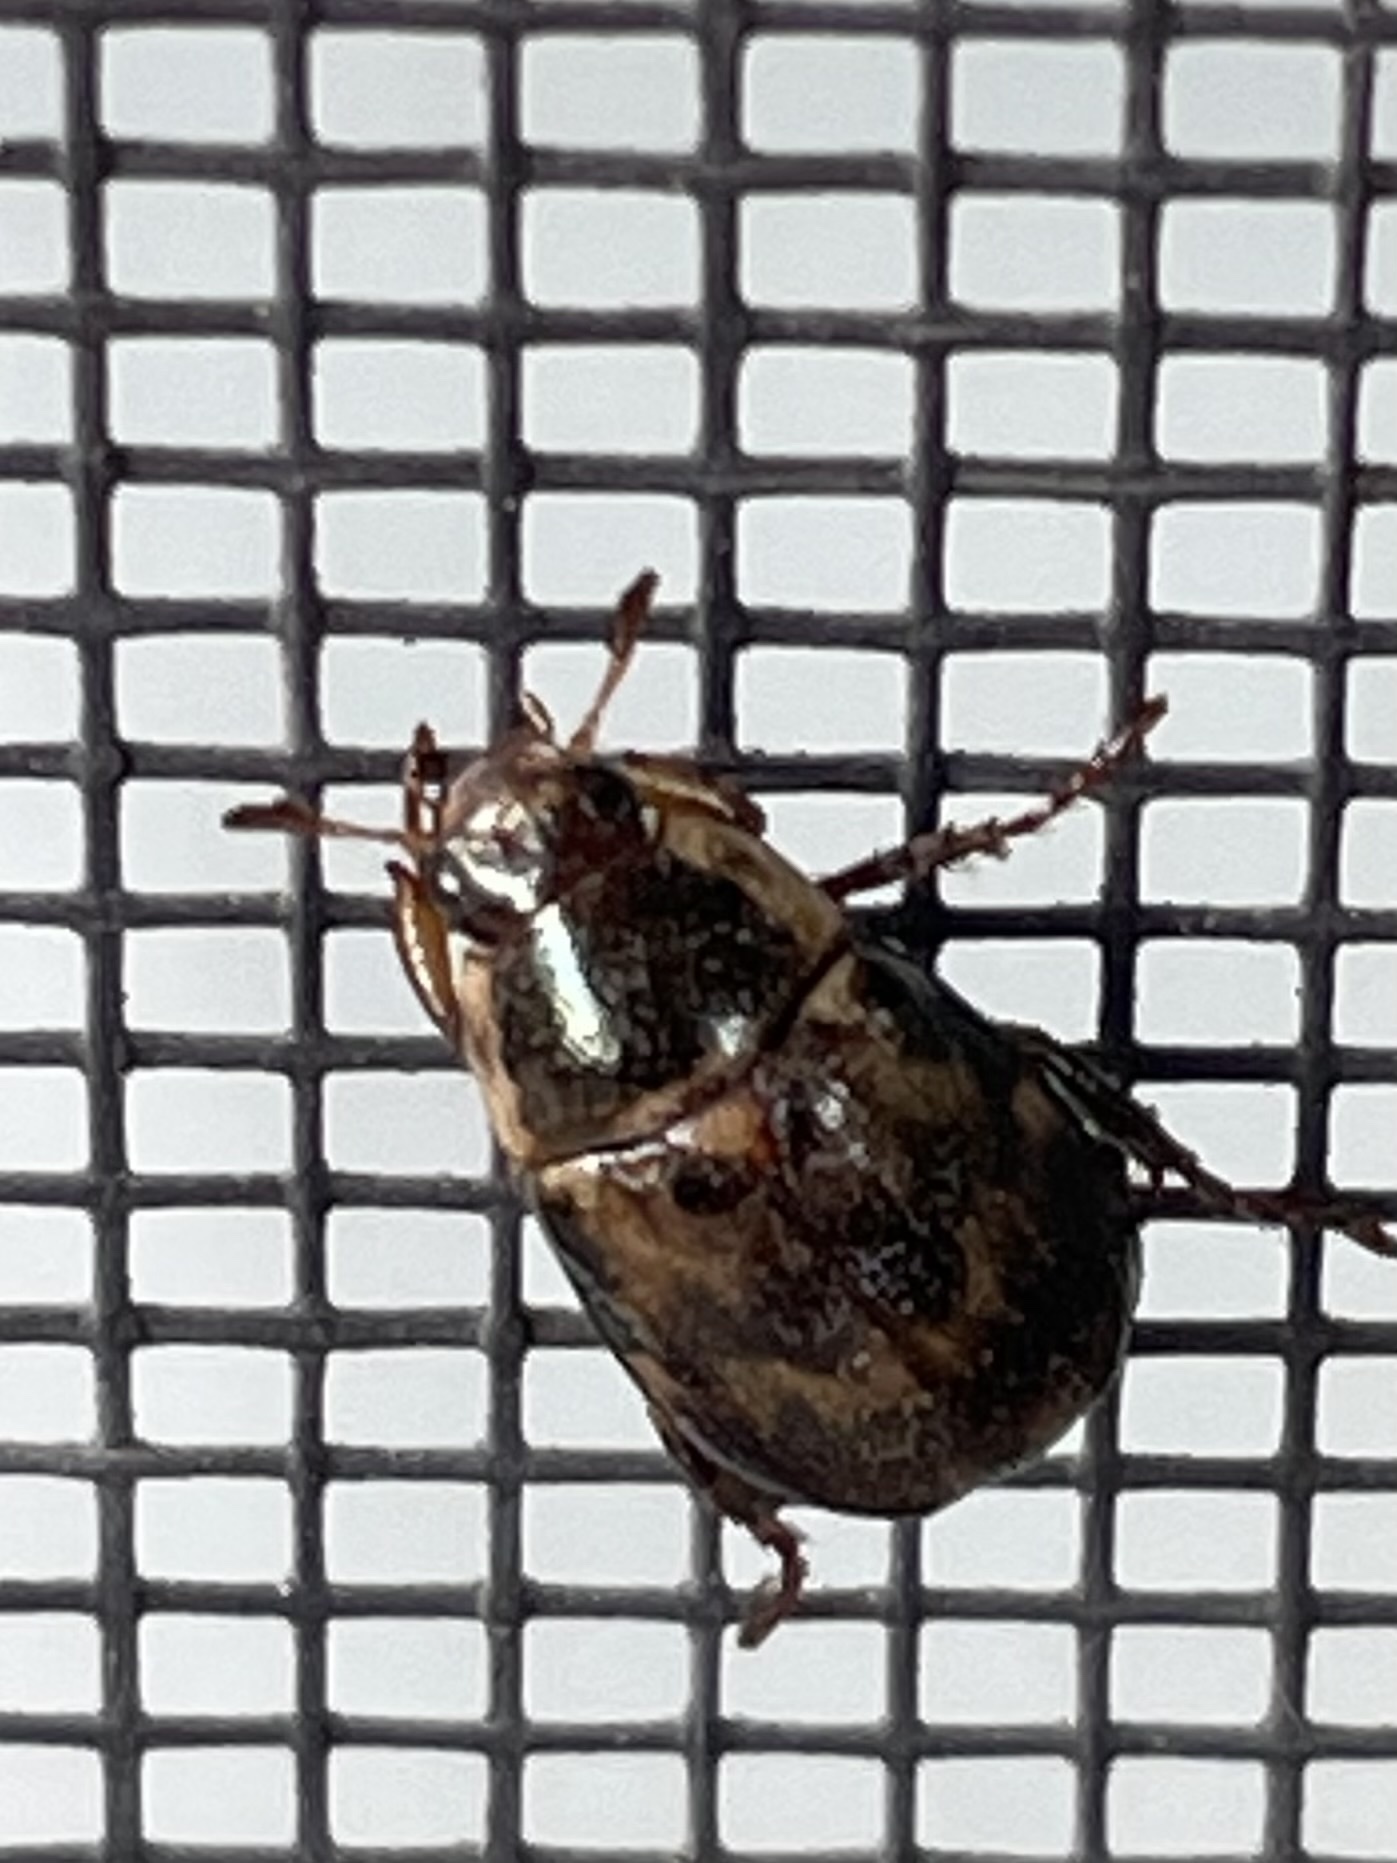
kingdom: Animalia
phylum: Arthropoda
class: Insecta
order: Coleoptera
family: Scarabaeidae
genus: Paranomala
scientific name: Paranomala undulata
